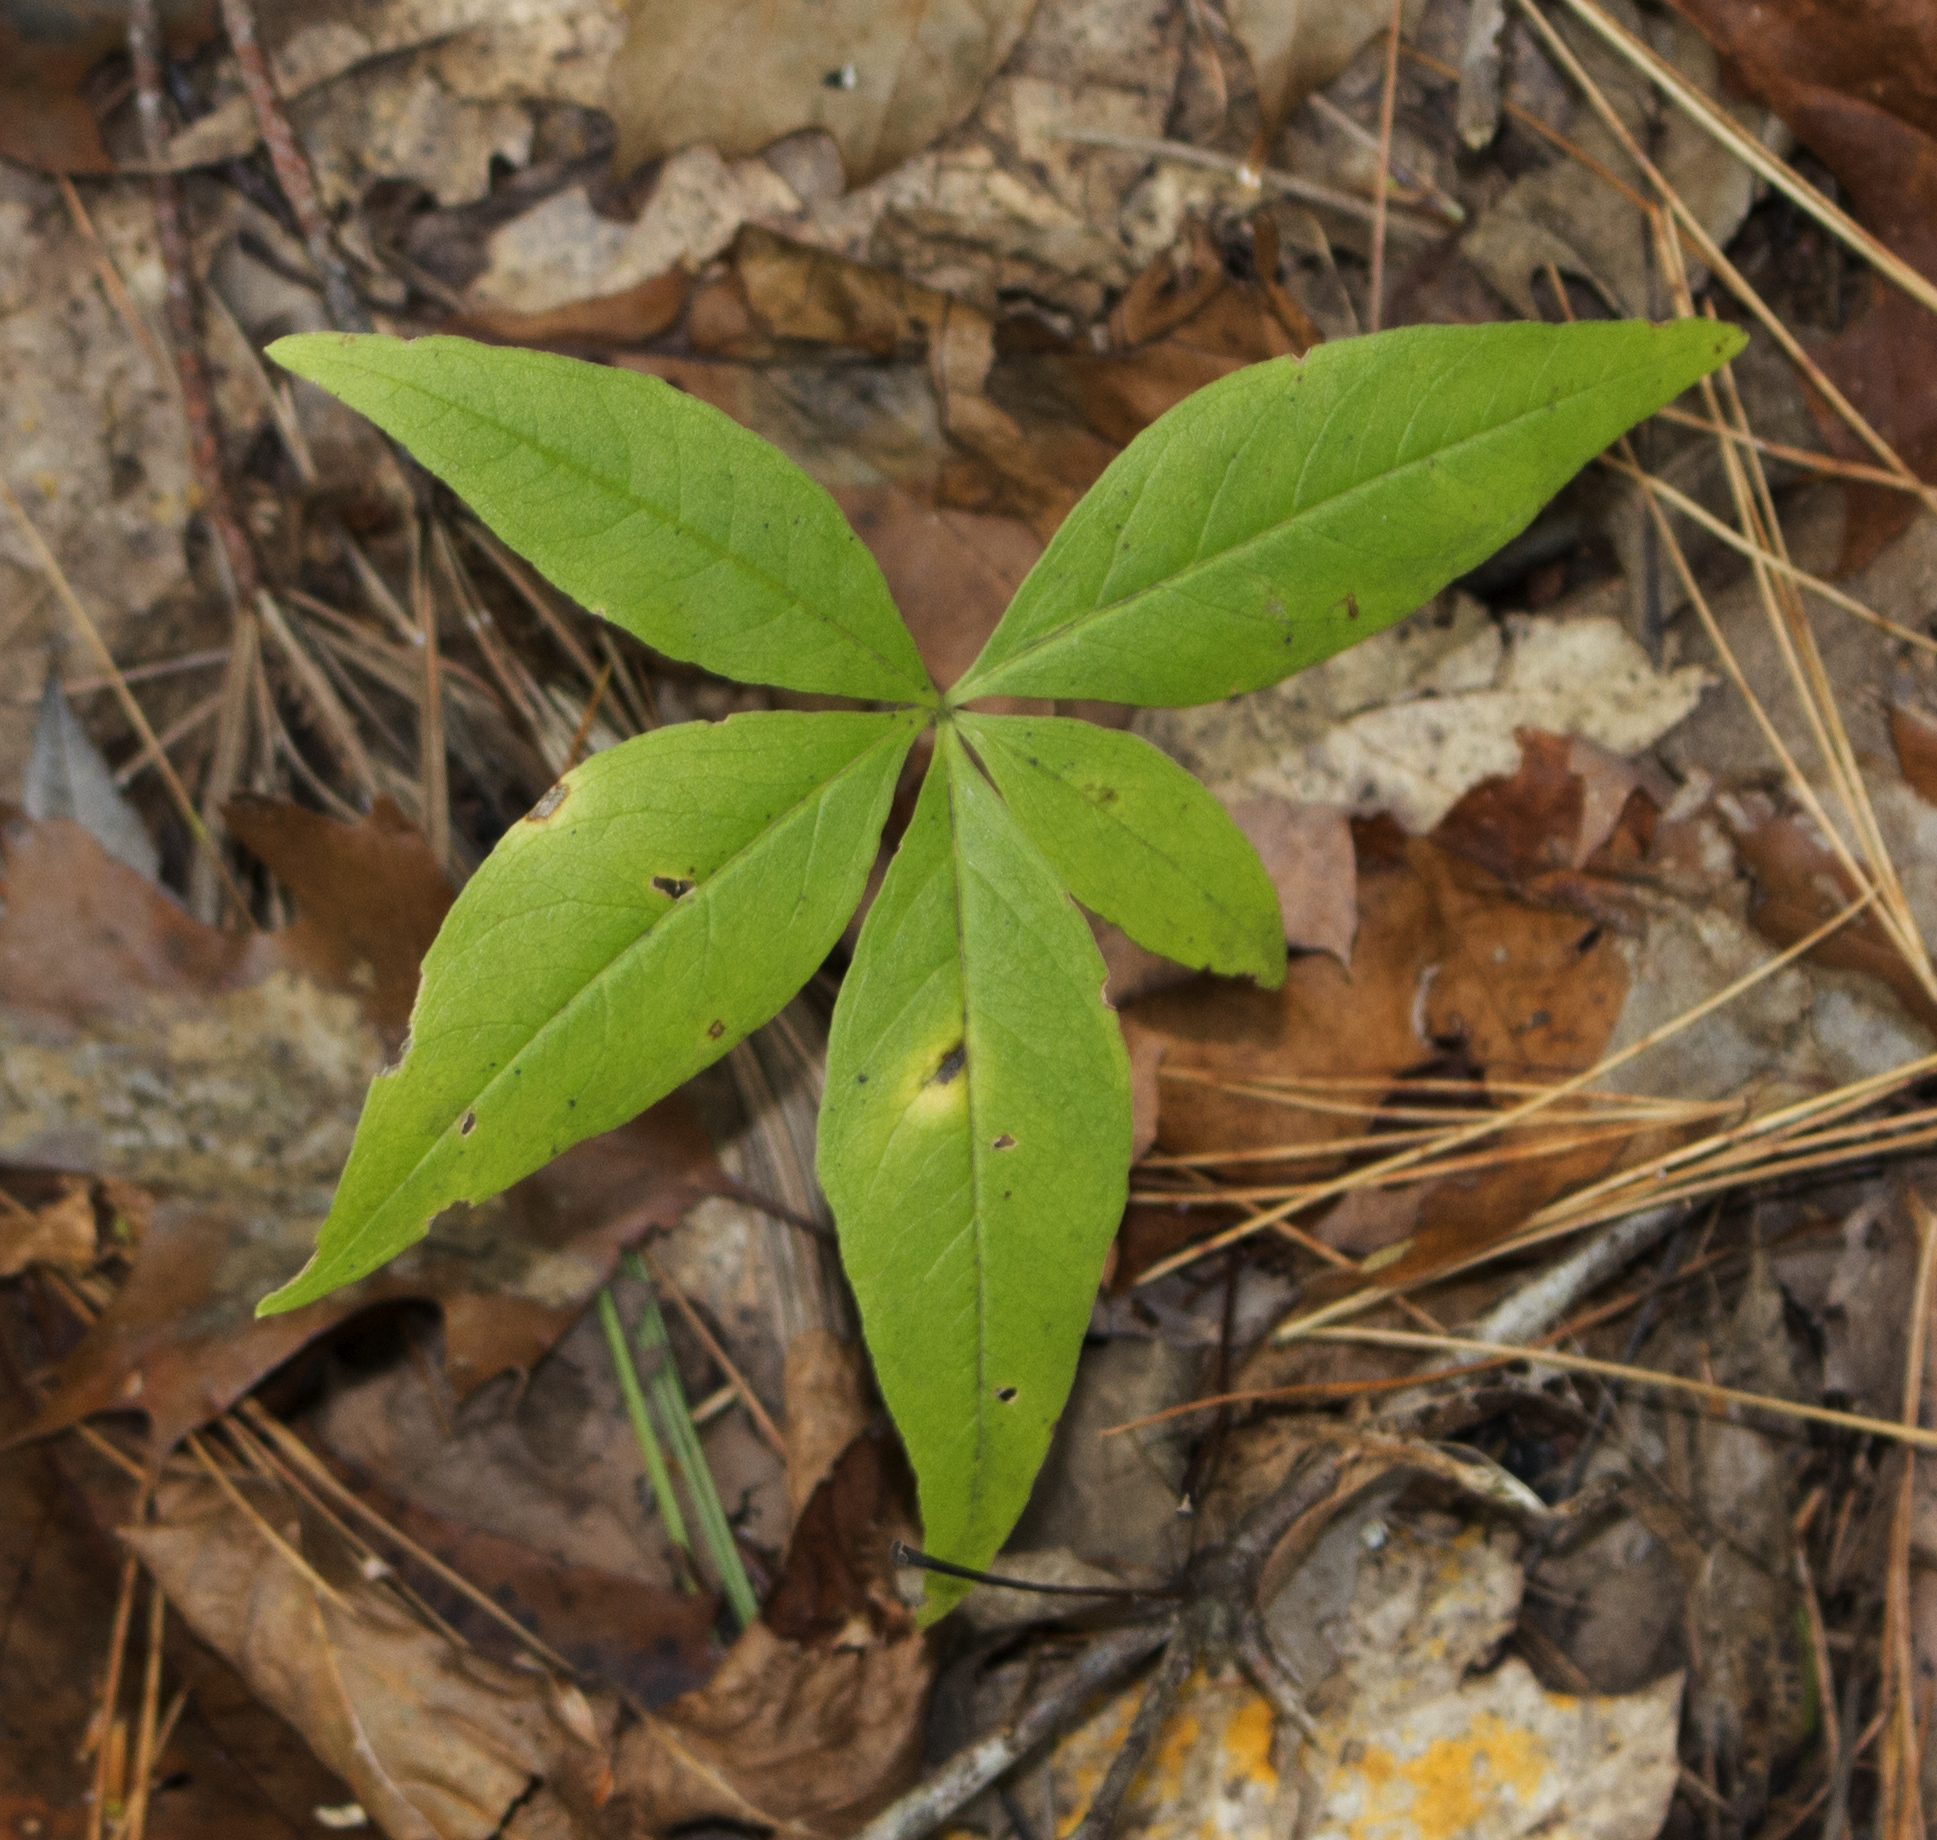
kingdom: Plantae
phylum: Tracheophyta
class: Magnoliopsida
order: Ericales
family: Primulaceae
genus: Lysimachia
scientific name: Lysimachia borealis
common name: American starflower
